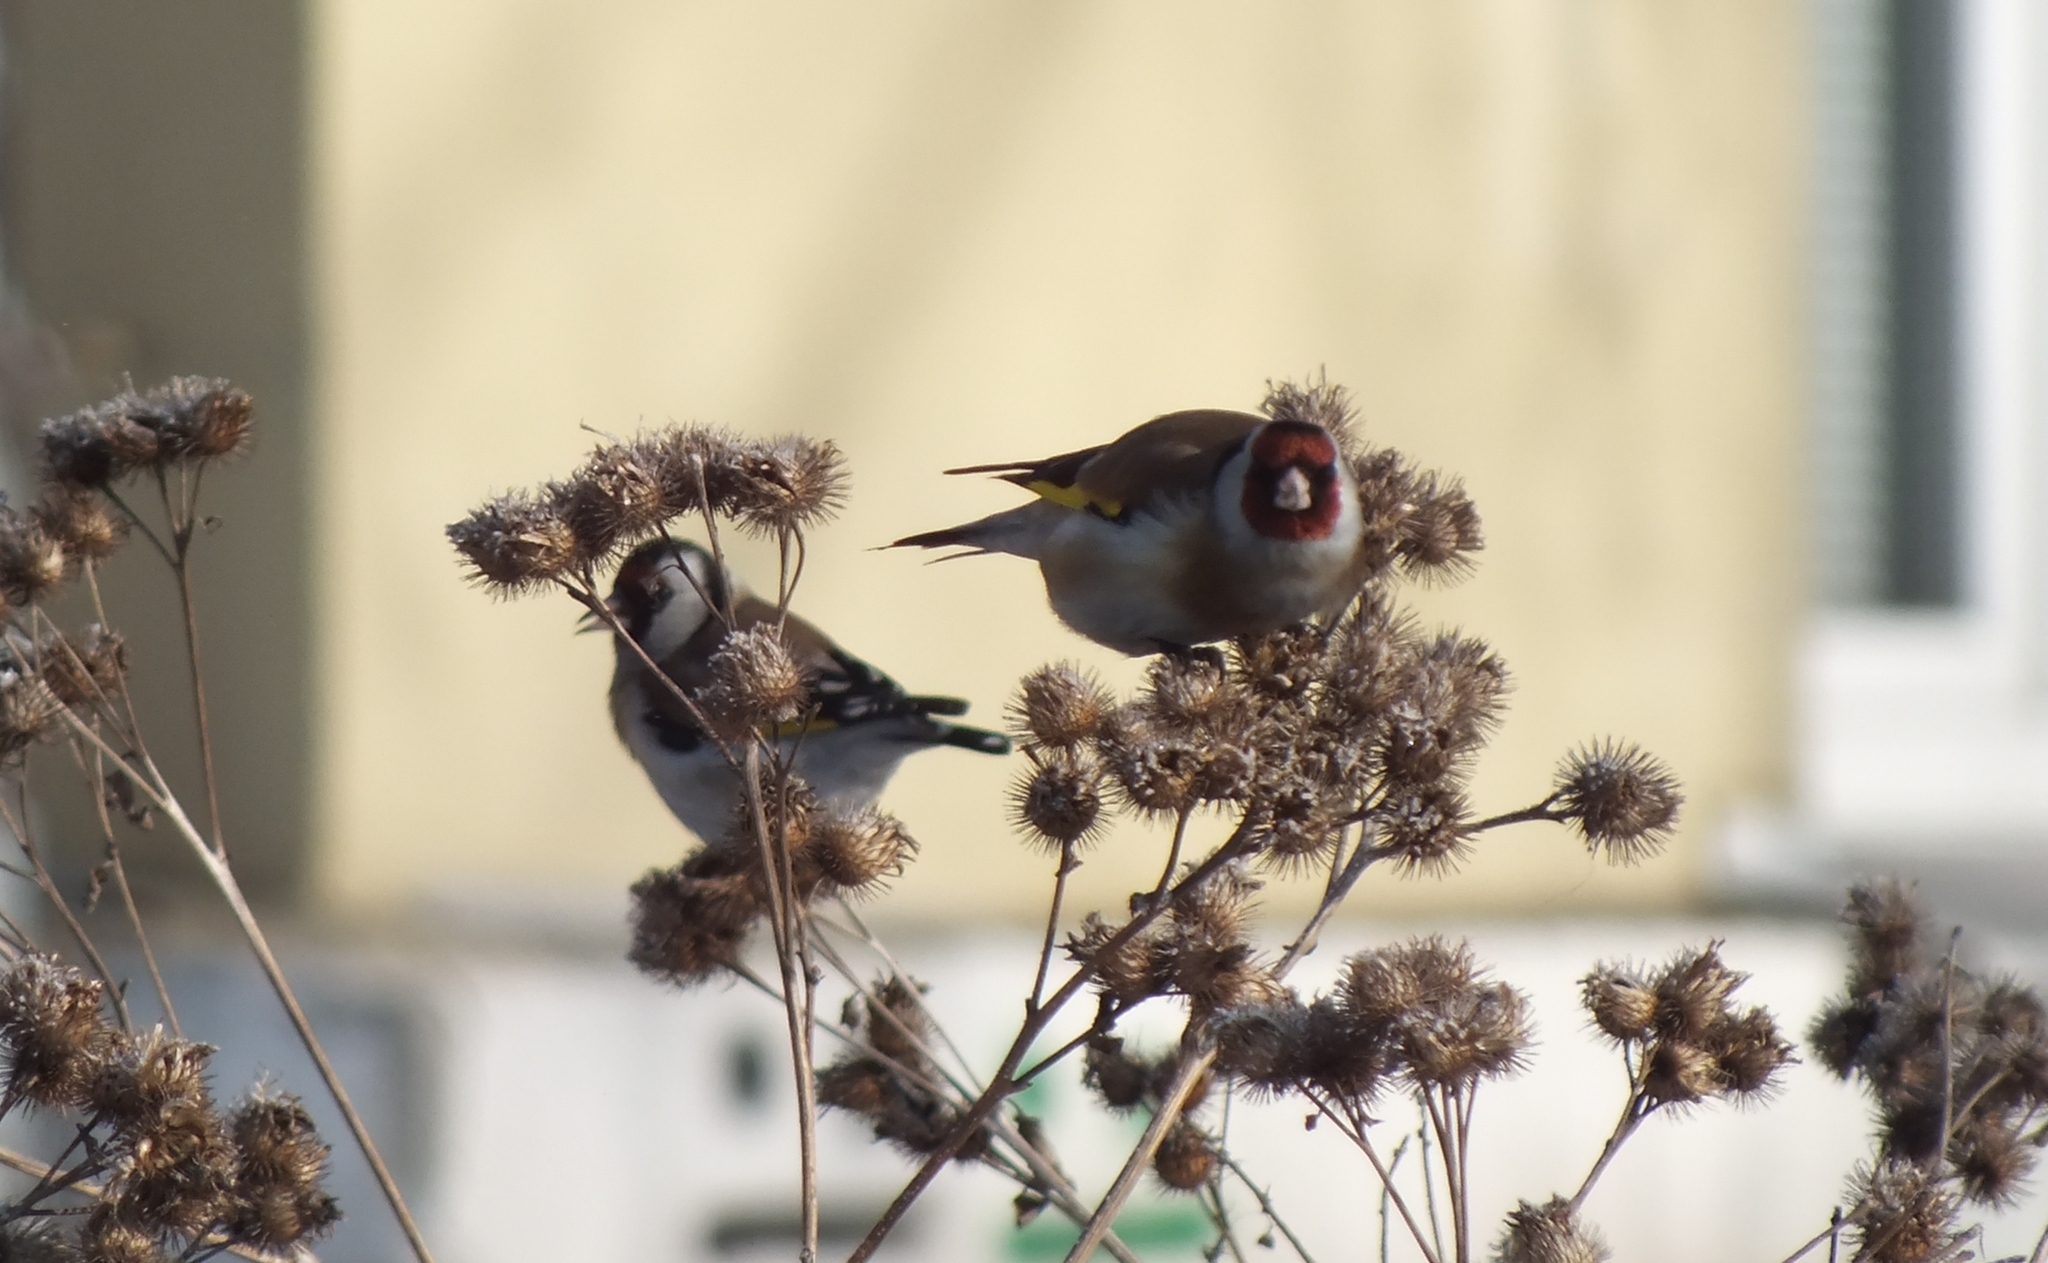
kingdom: Animalia
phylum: Chordata
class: Aves
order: Passeriformes
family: Fringillidae
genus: Carduelis
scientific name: Carduelis carduelis
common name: European goldfinch
